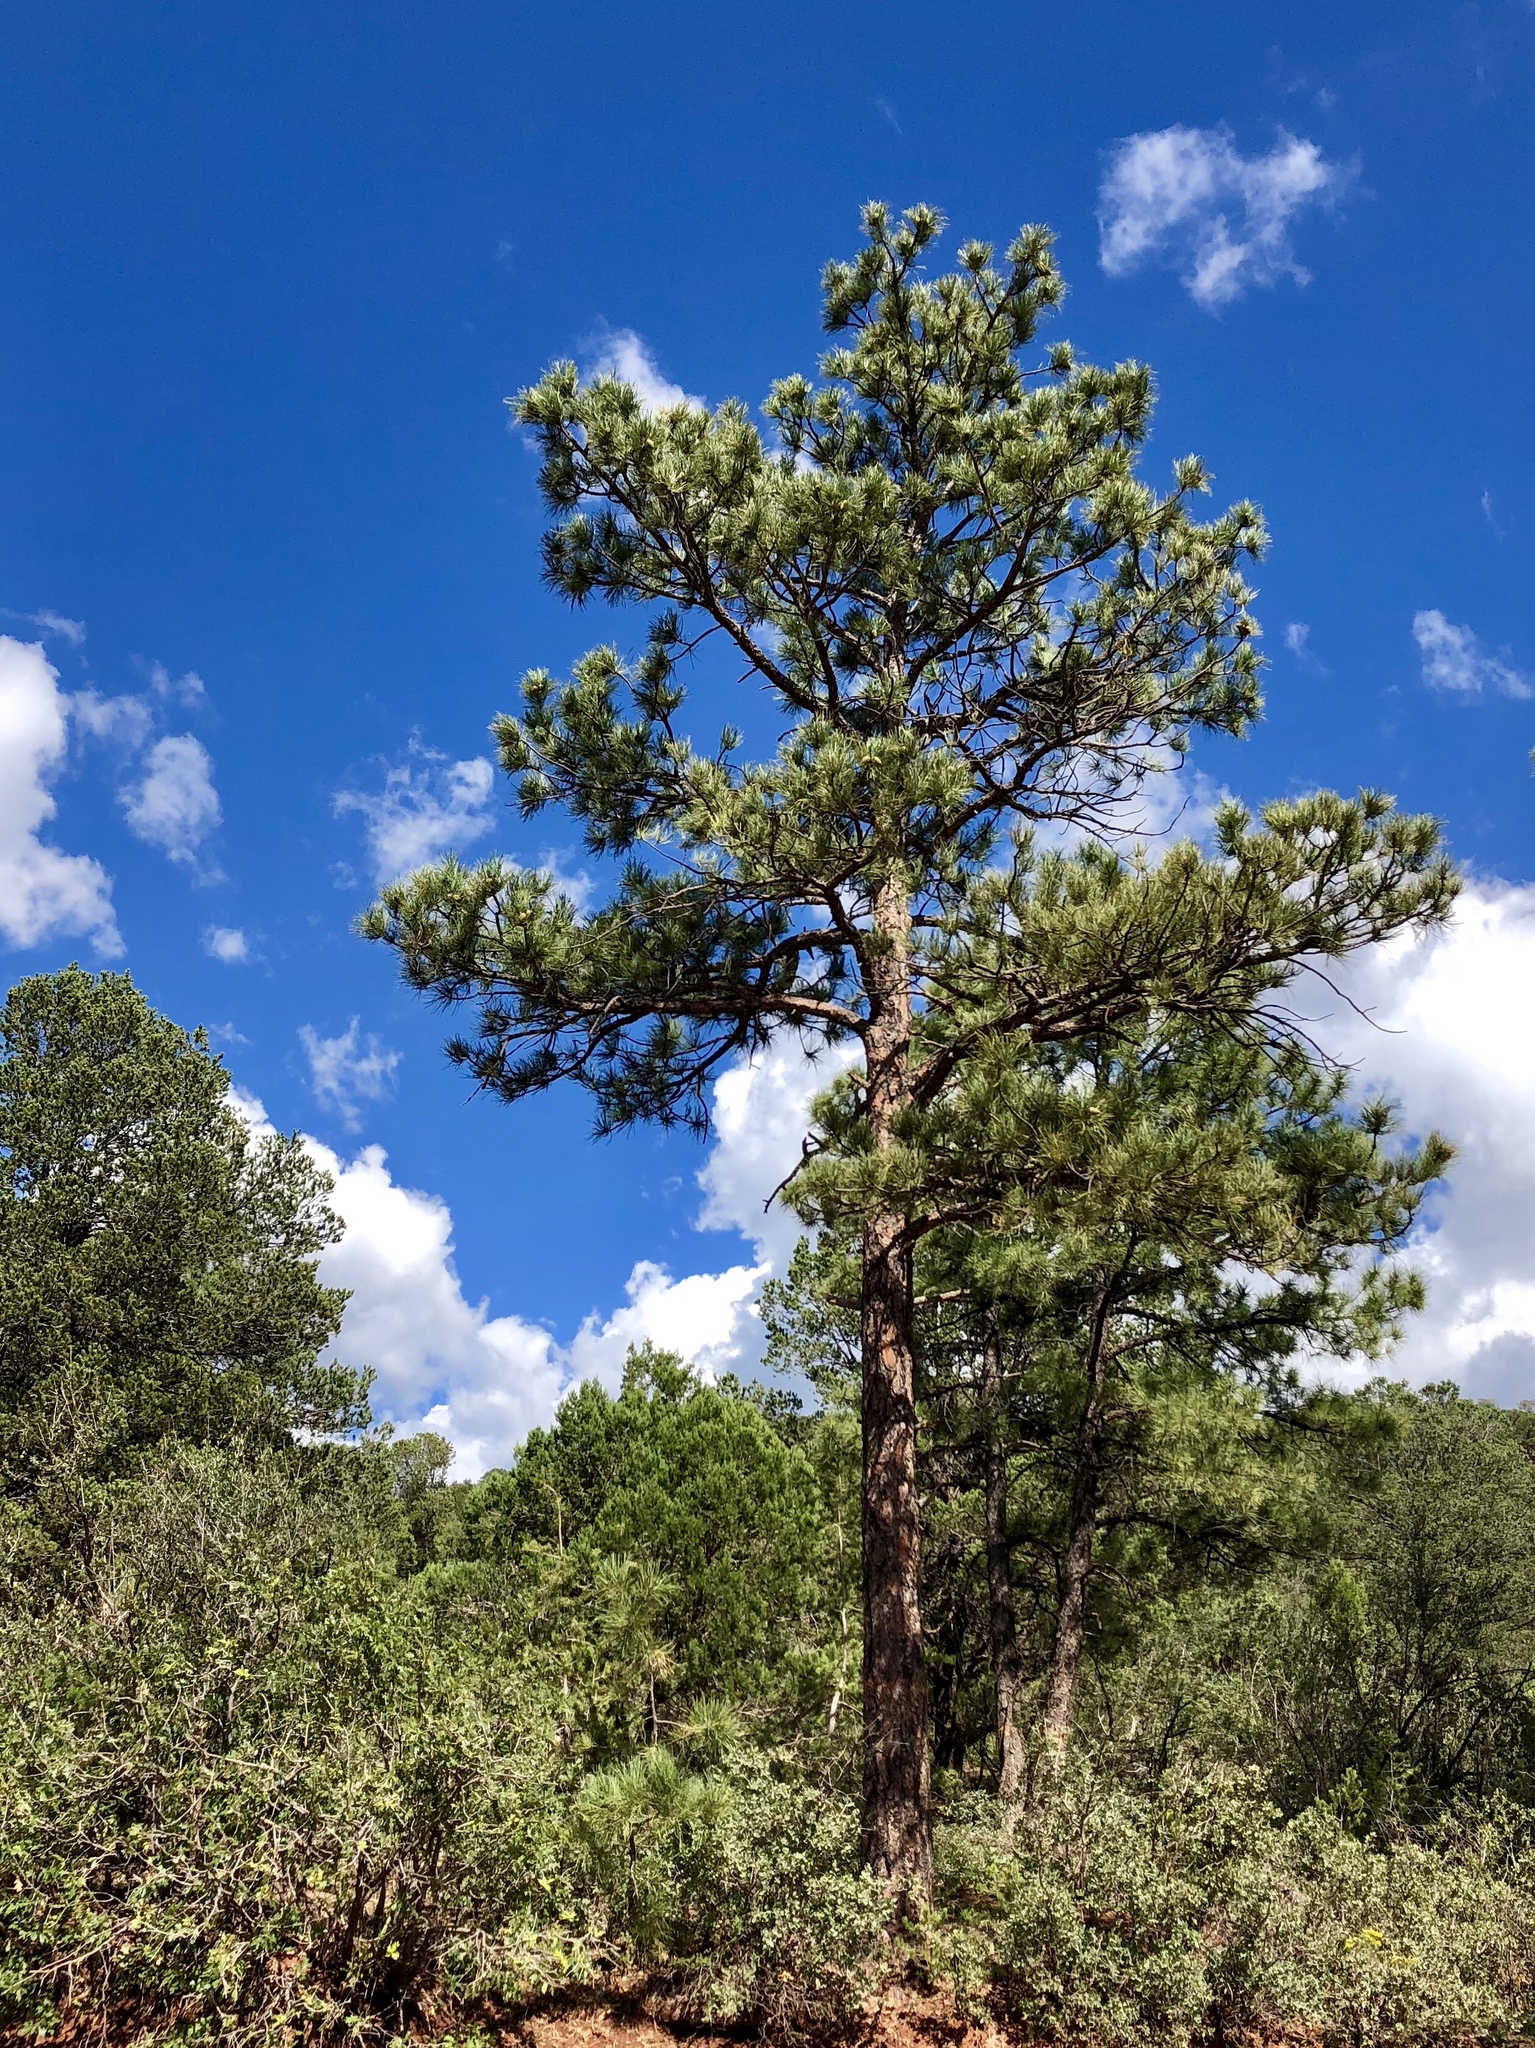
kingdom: Plantae
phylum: Tracheophyta
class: Pinopsida
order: Pinales
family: Pinaceae
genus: Pinus
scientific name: Pinus ponderosa
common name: Western yellow-pine
